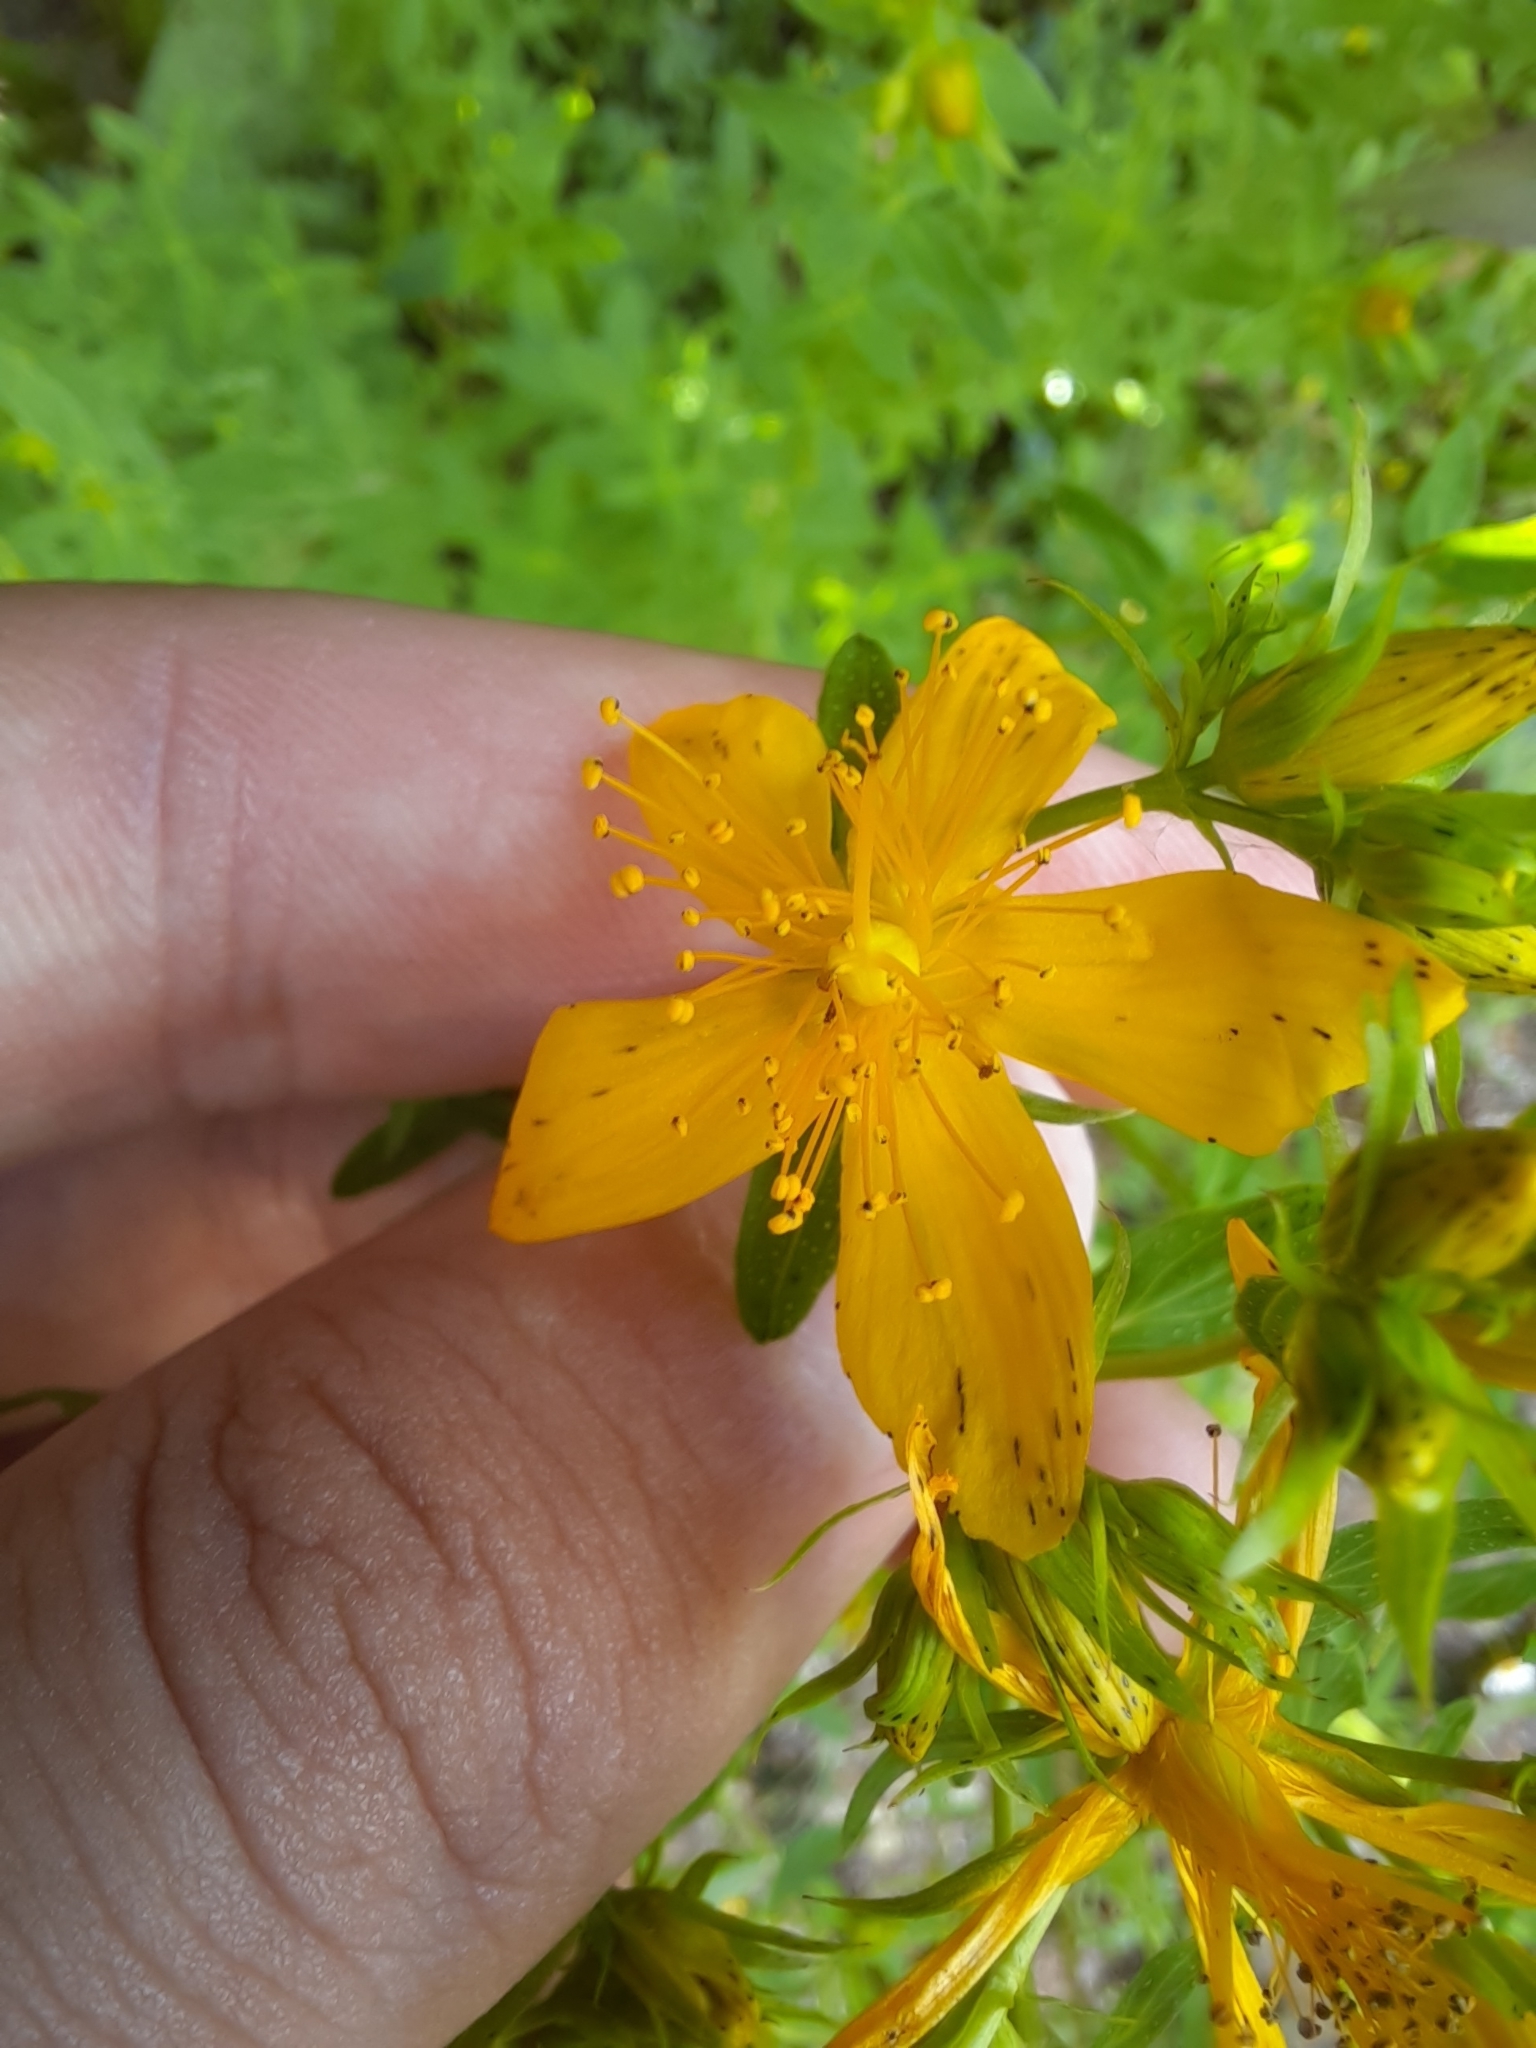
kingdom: Plantae
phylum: Tracheophyta
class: Magnoliopsida
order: Malpighiales
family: Hypericaceae
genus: Hypericum
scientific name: Hypericum perforatum
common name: Common st. johnswort
